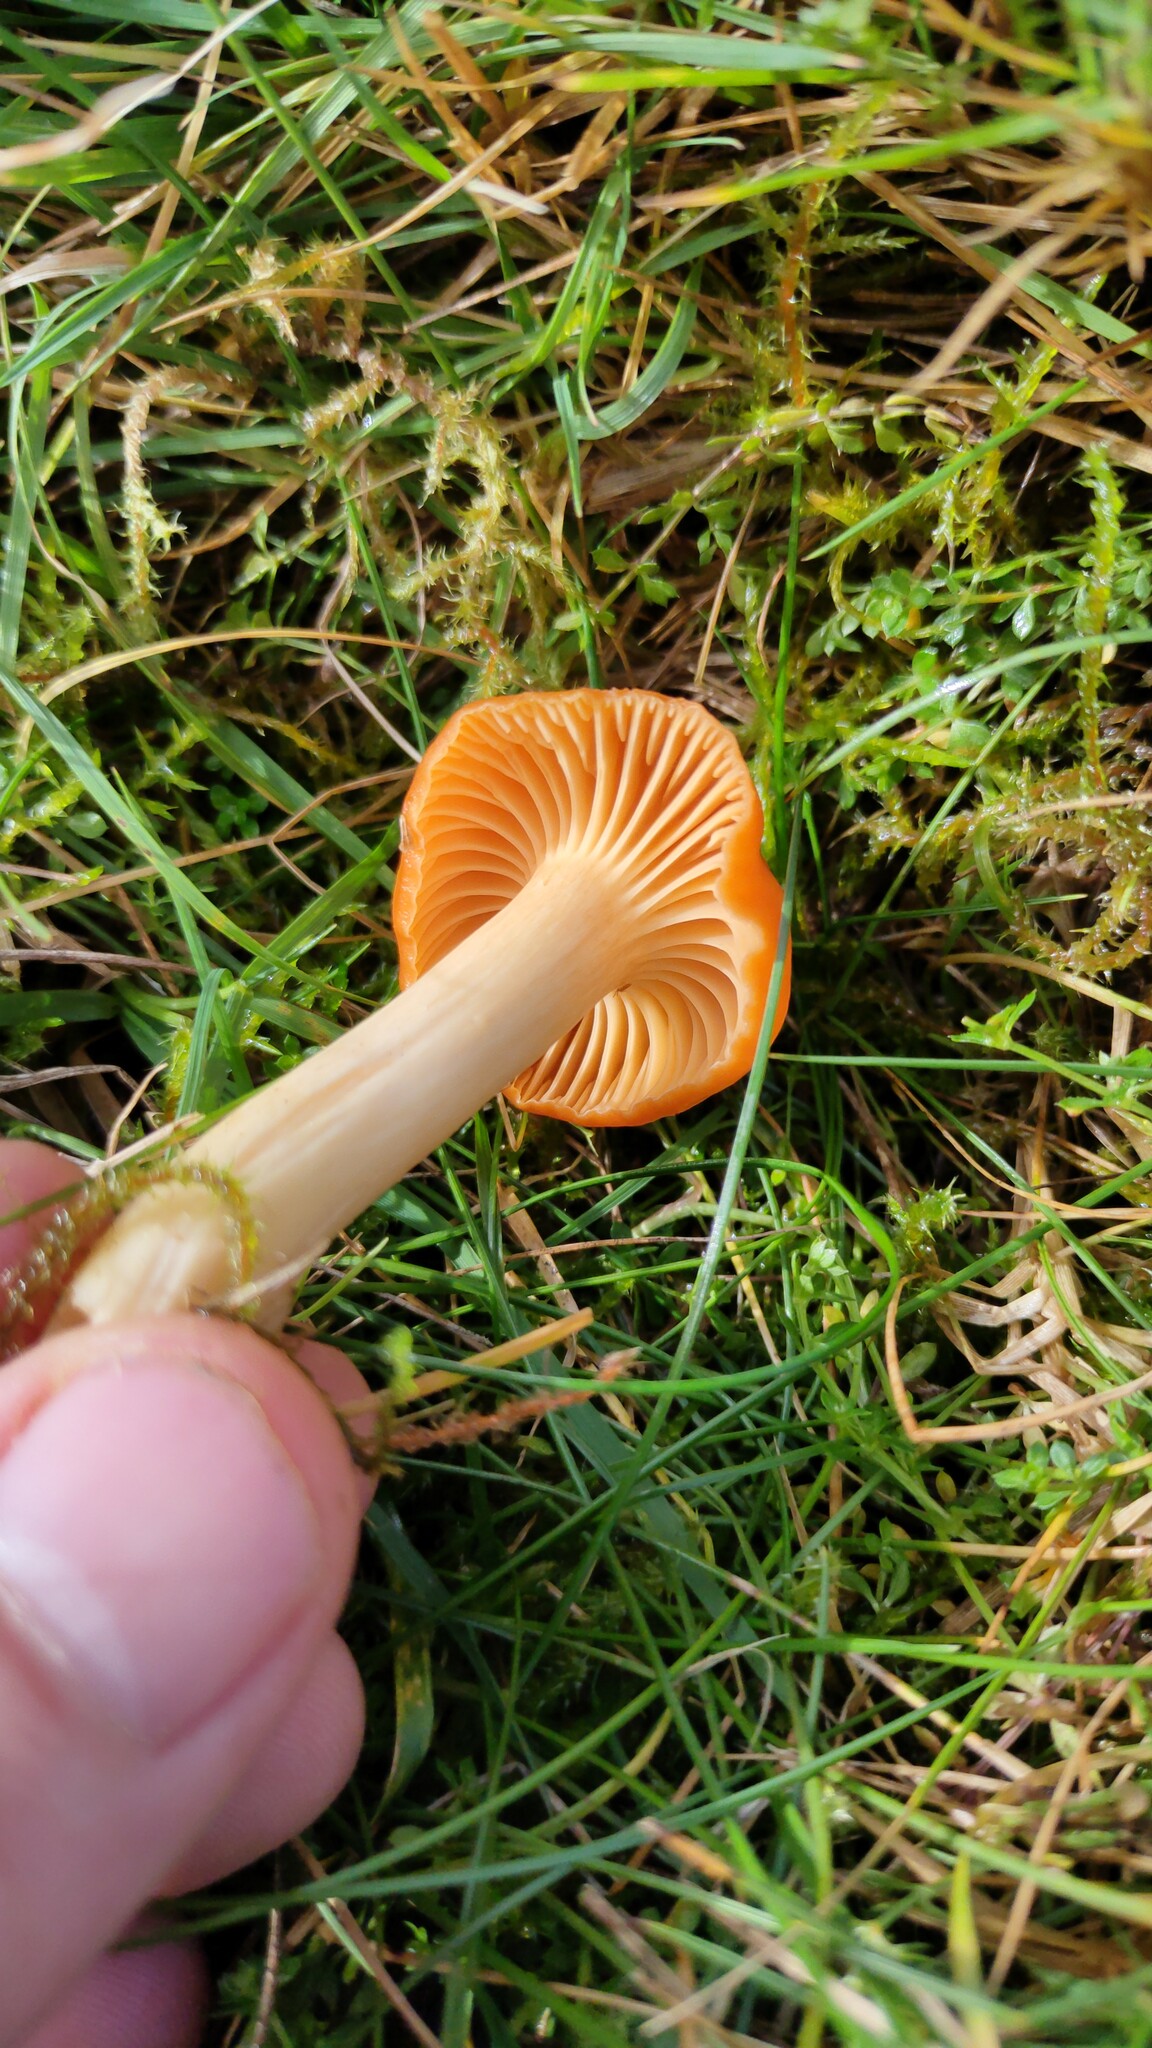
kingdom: Fungi
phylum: Basidiomycota
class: Agaricomycetes
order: Agaricales
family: Hygrophoraceae
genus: Cuphophyllus
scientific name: Cuphophyllus pratensis
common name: Meadow waxcap
